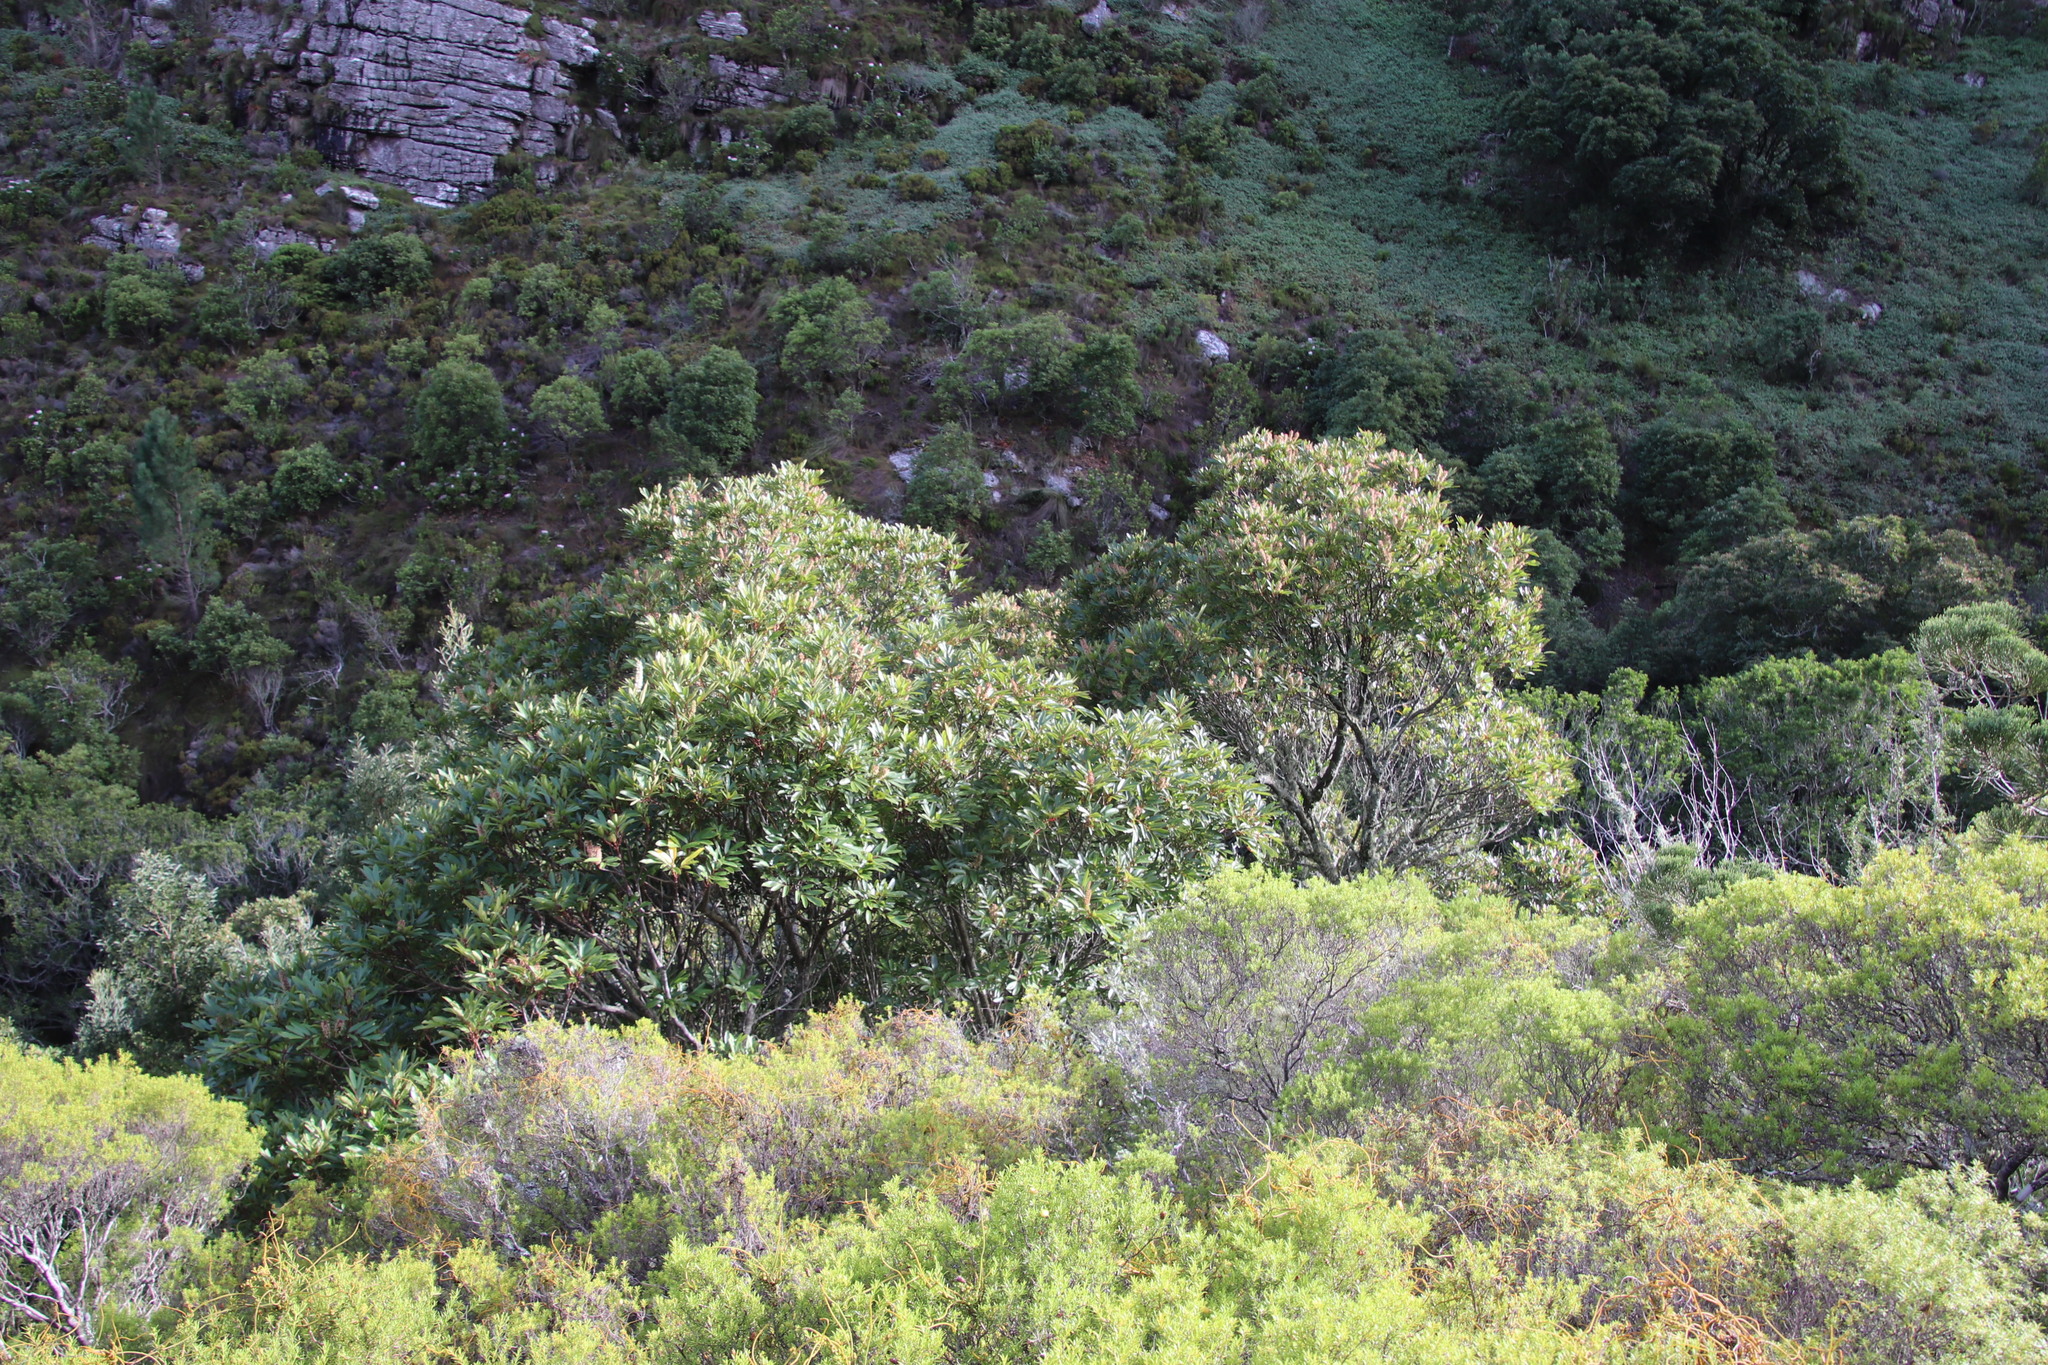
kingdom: Plantae
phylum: Tracheophyta
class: Magnoliopsida
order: Oxalidales
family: Cunoniaceae
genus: Cunonia
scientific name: Cunonia capensis
